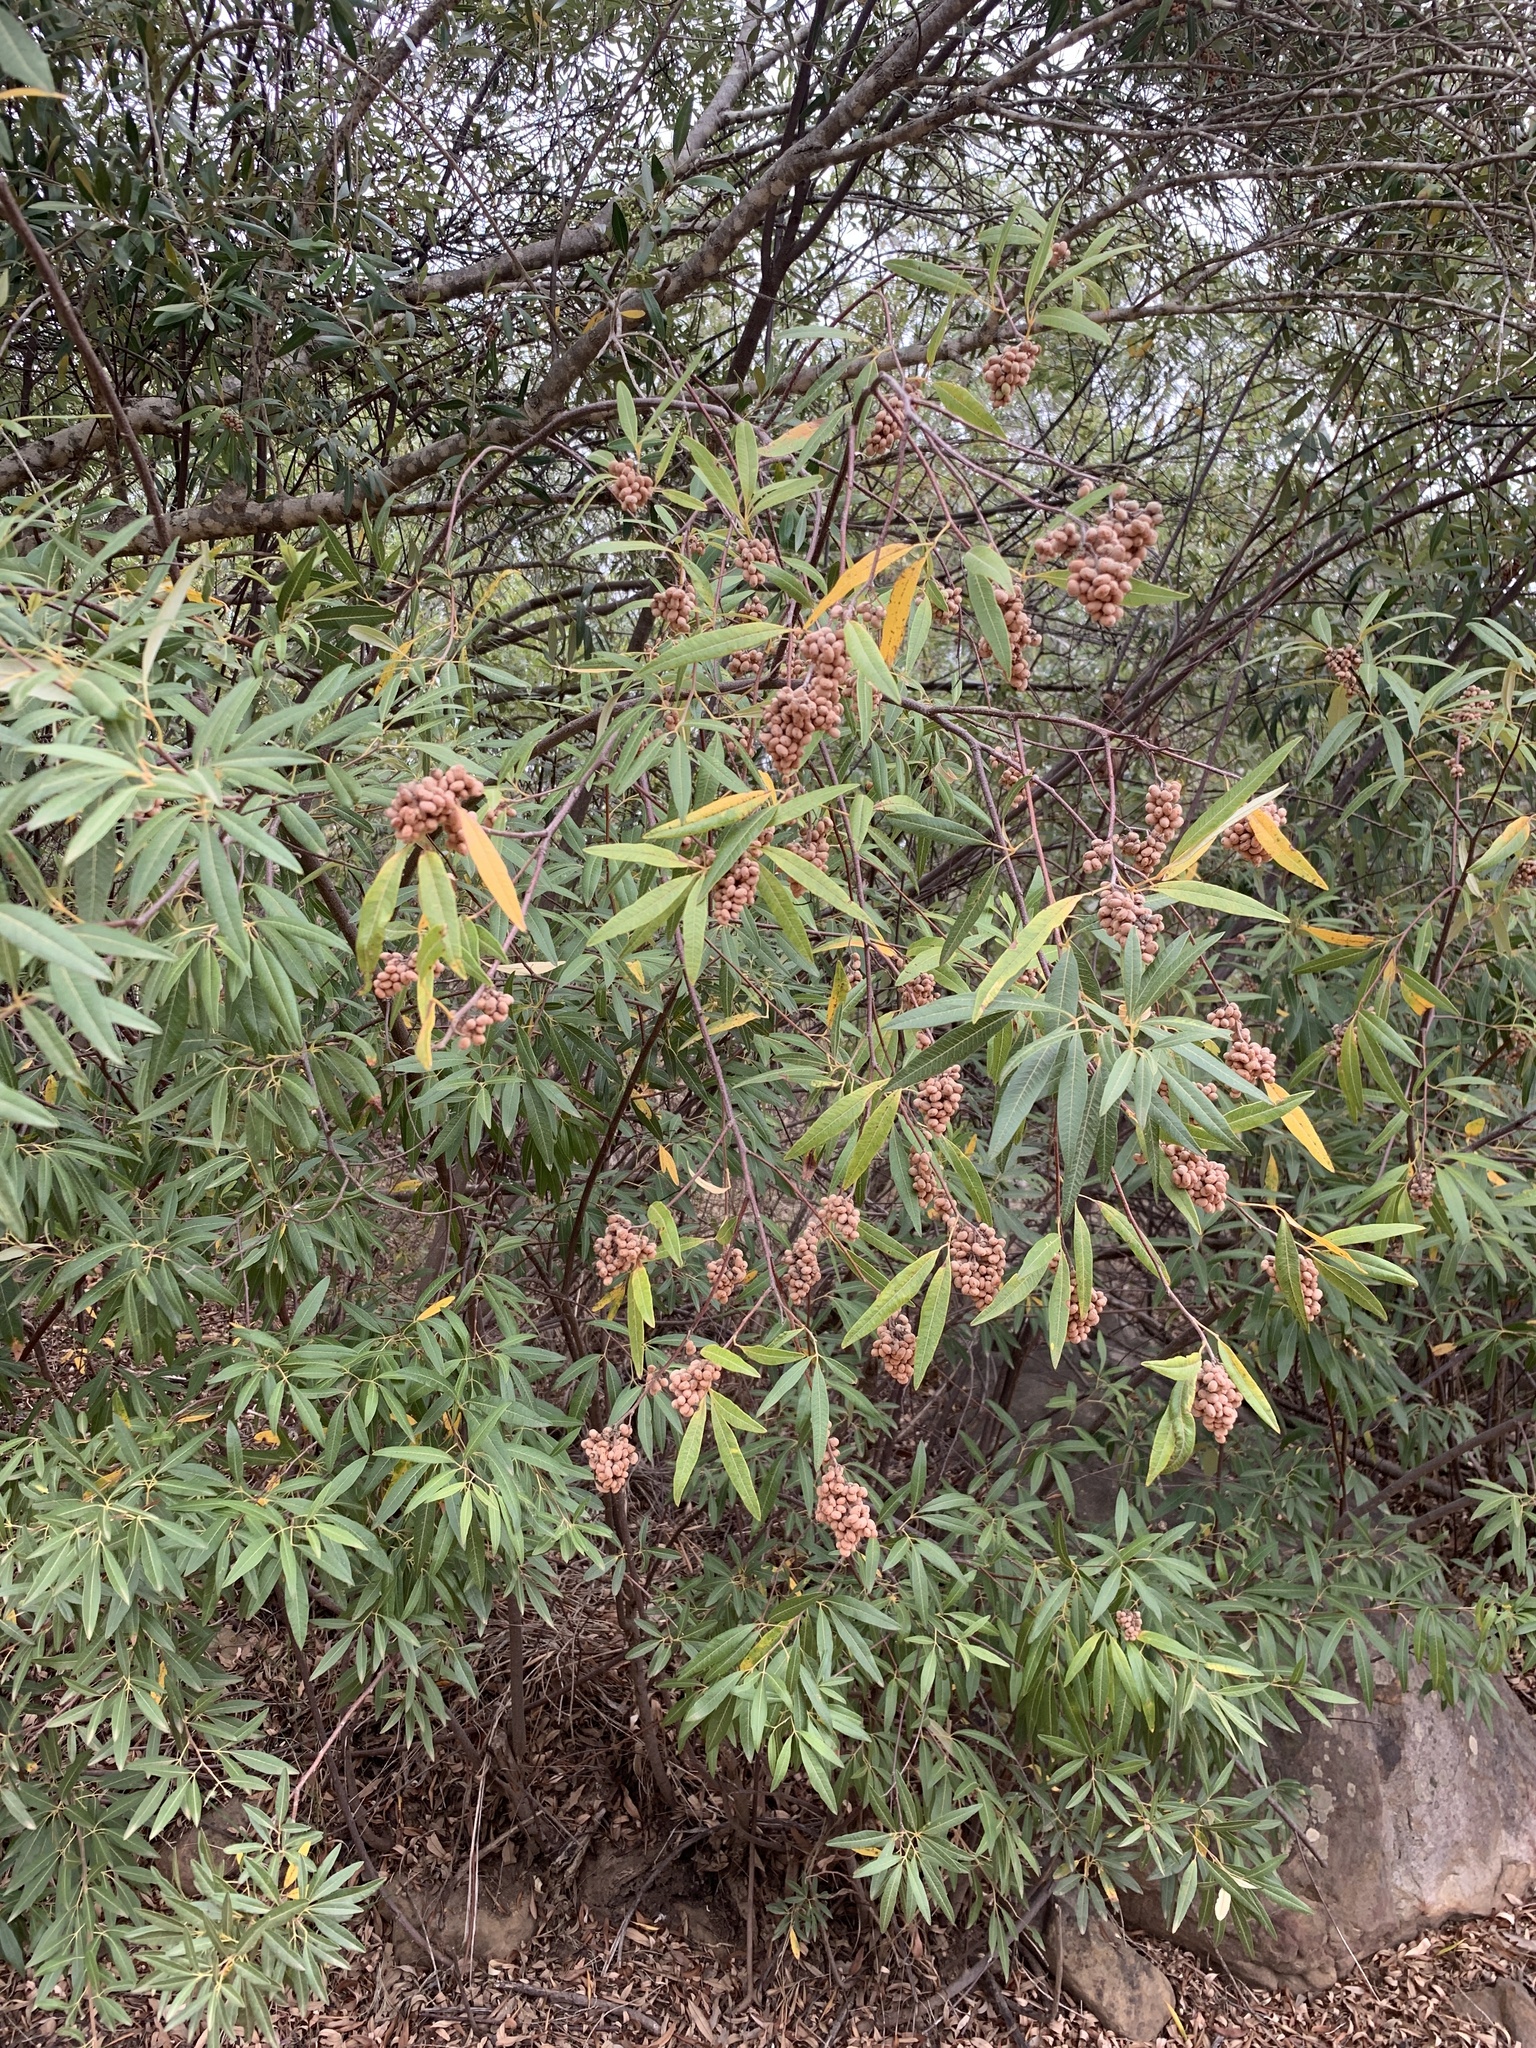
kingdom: Plantae
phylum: Tracheophyta
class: Magnoliopsida
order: Sapindales
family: Anacardiaceae
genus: Searsia
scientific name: Searsia angustifolia
